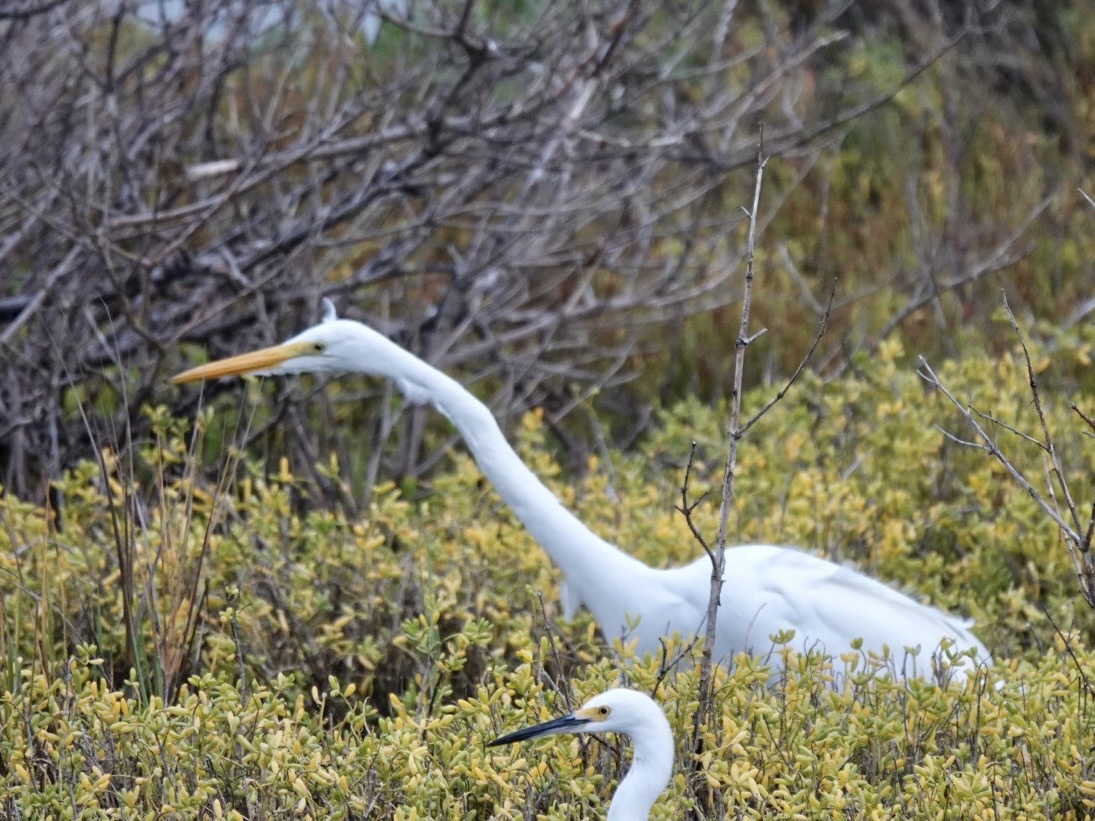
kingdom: Animalia
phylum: Chordata
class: Aves
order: Pelecaniformes
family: Ardeidae
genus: Ardea
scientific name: Ardea alba
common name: Great egret
